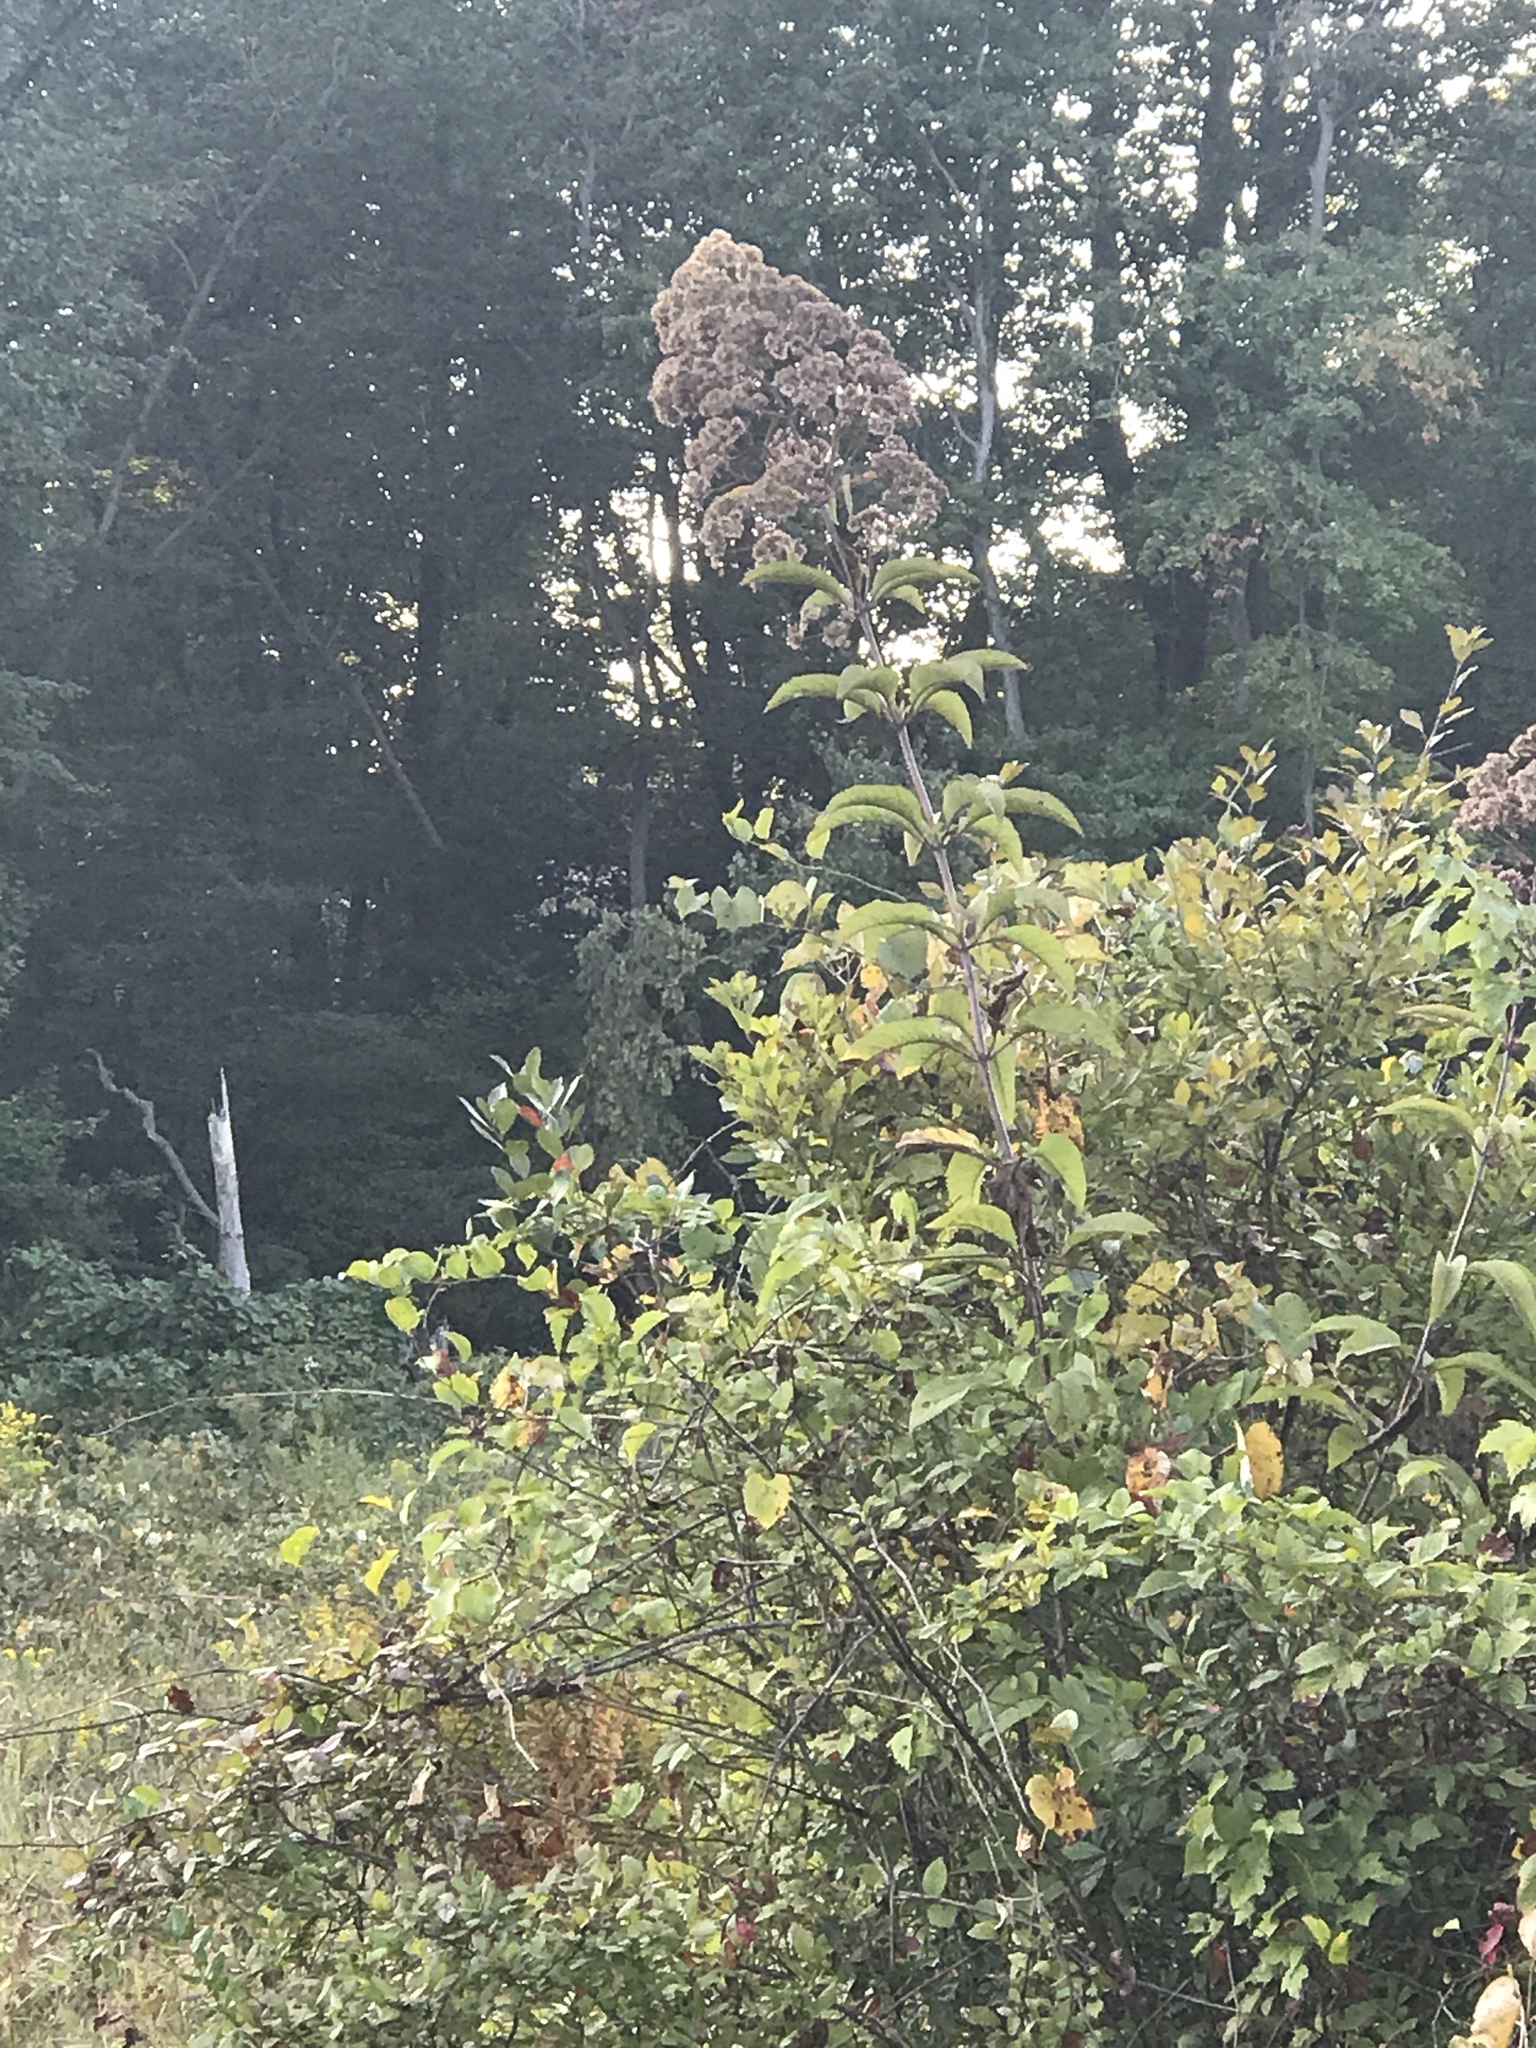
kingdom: Plantae
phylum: Tracheophyta
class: Magnoliopsida
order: Asterales
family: Asteraceae
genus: Eutrochium
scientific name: Eutrochium fistulosum
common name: Trumpetweed
